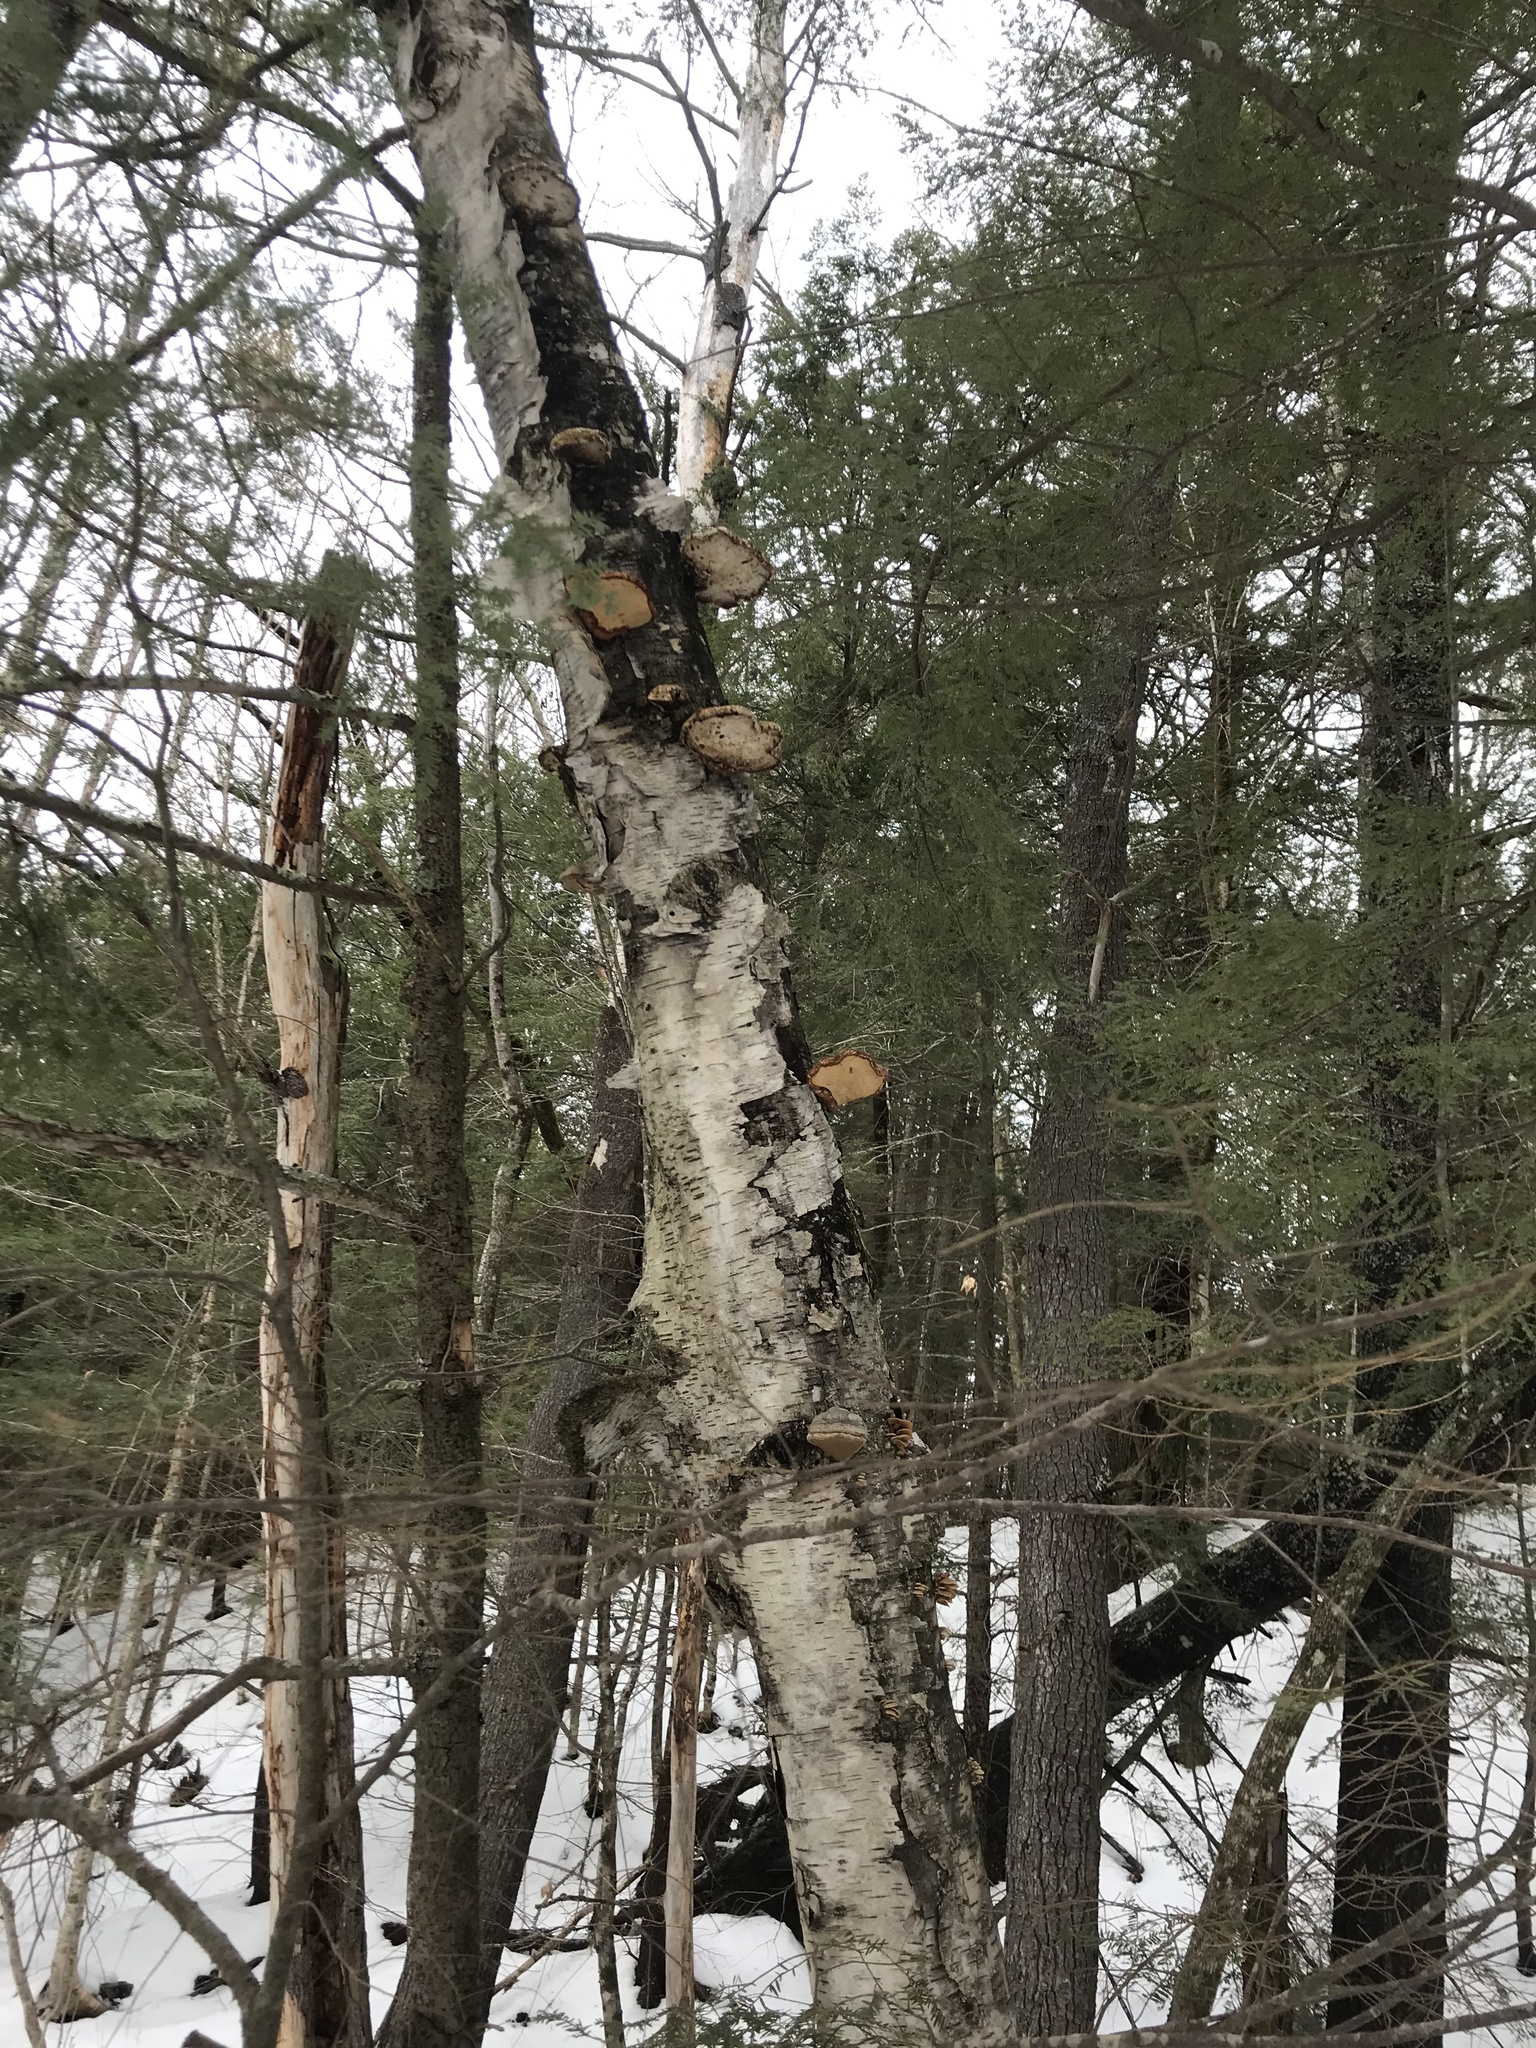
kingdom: Fungi
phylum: Basidiomycota
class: Agaricomycetes
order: Polyporales
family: Fomitopsidaceae
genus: Fomitopsis
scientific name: Fomitopsis betulina
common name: Birch polypore
